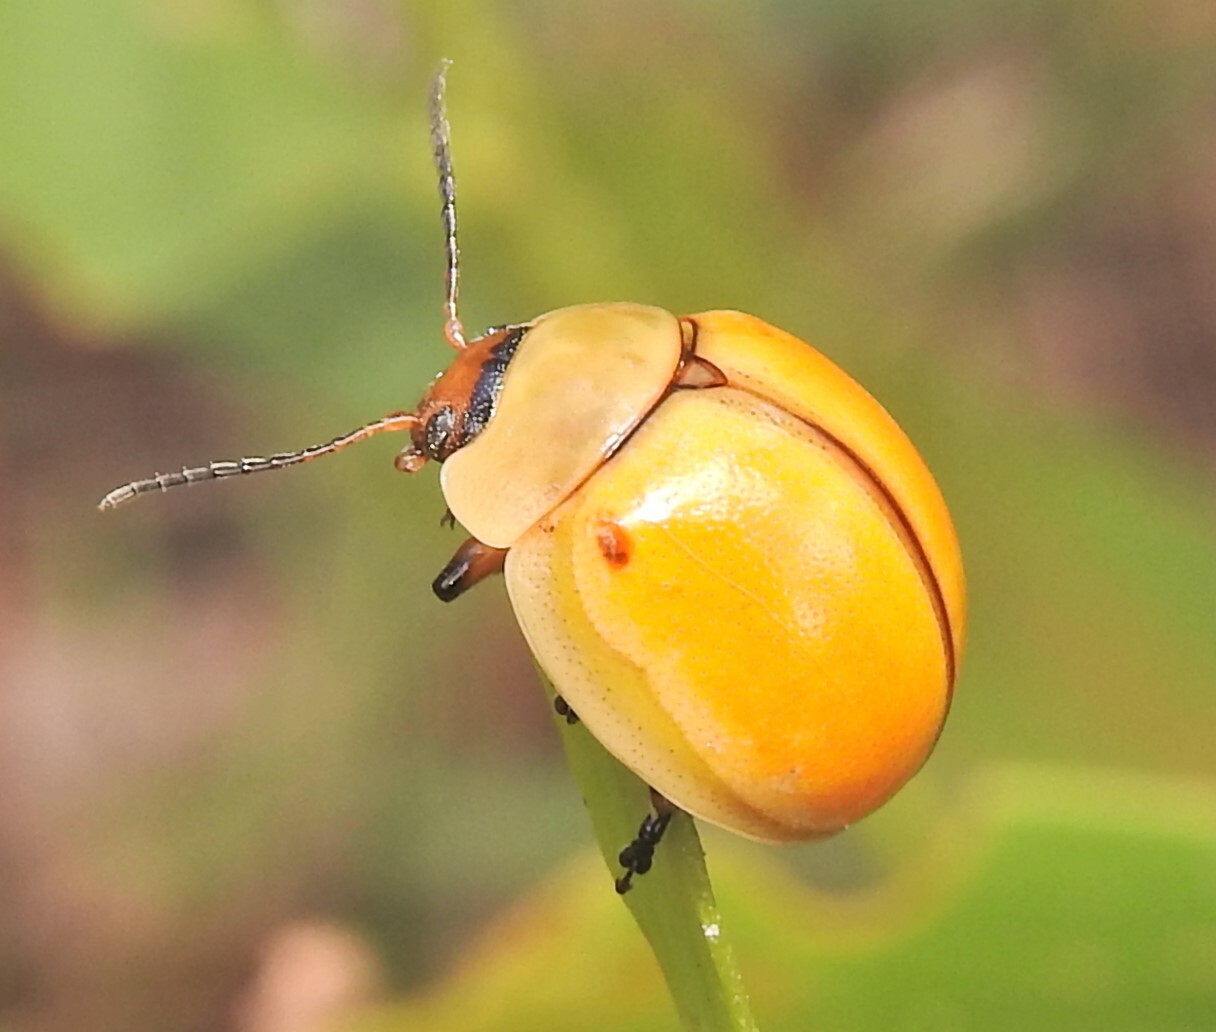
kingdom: Animalia
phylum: Arthropoda
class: Insecta
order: Coleoptera
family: Chrysomelidae
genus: Dicranosterna
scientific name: Dicranosterna
